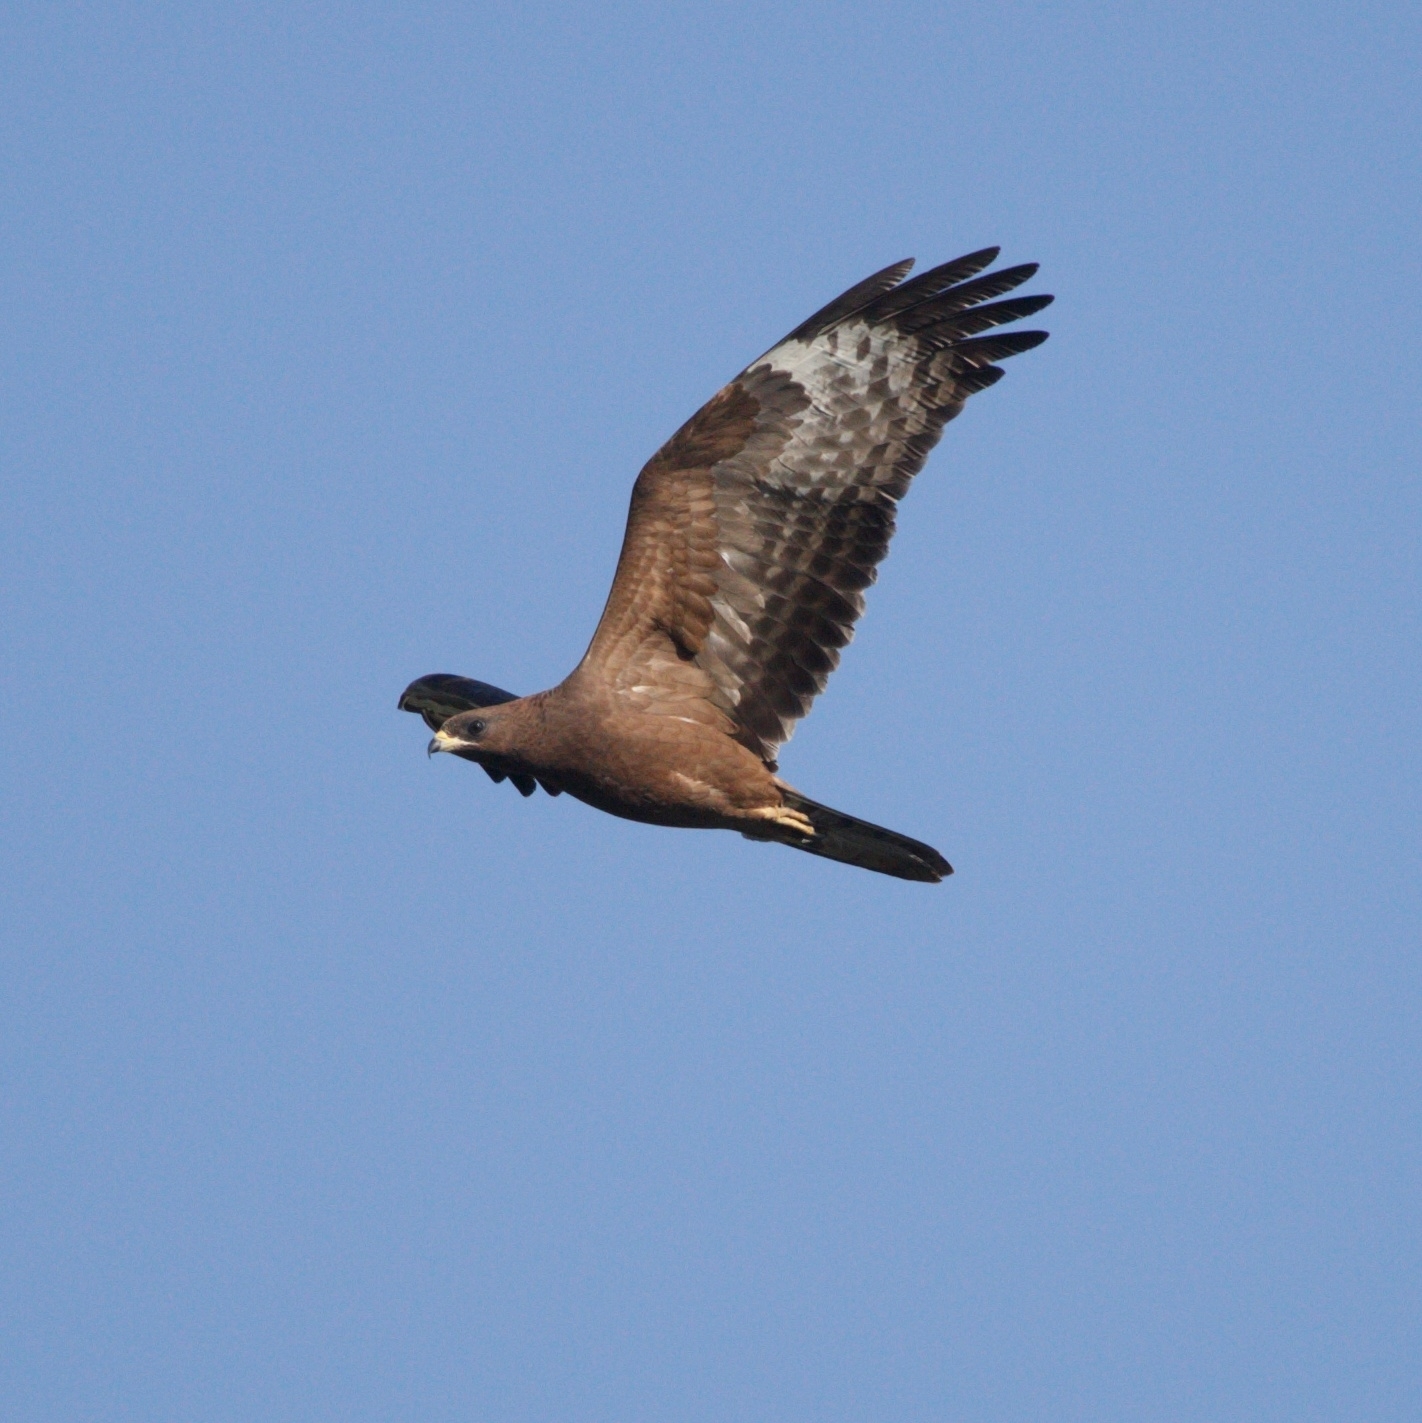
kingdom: Animalia
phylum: Chordata
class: Aves
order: Accipitriformes
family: Accipitridae
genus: Pernis
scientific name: Pernis apivorus
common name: European honey buzzard
